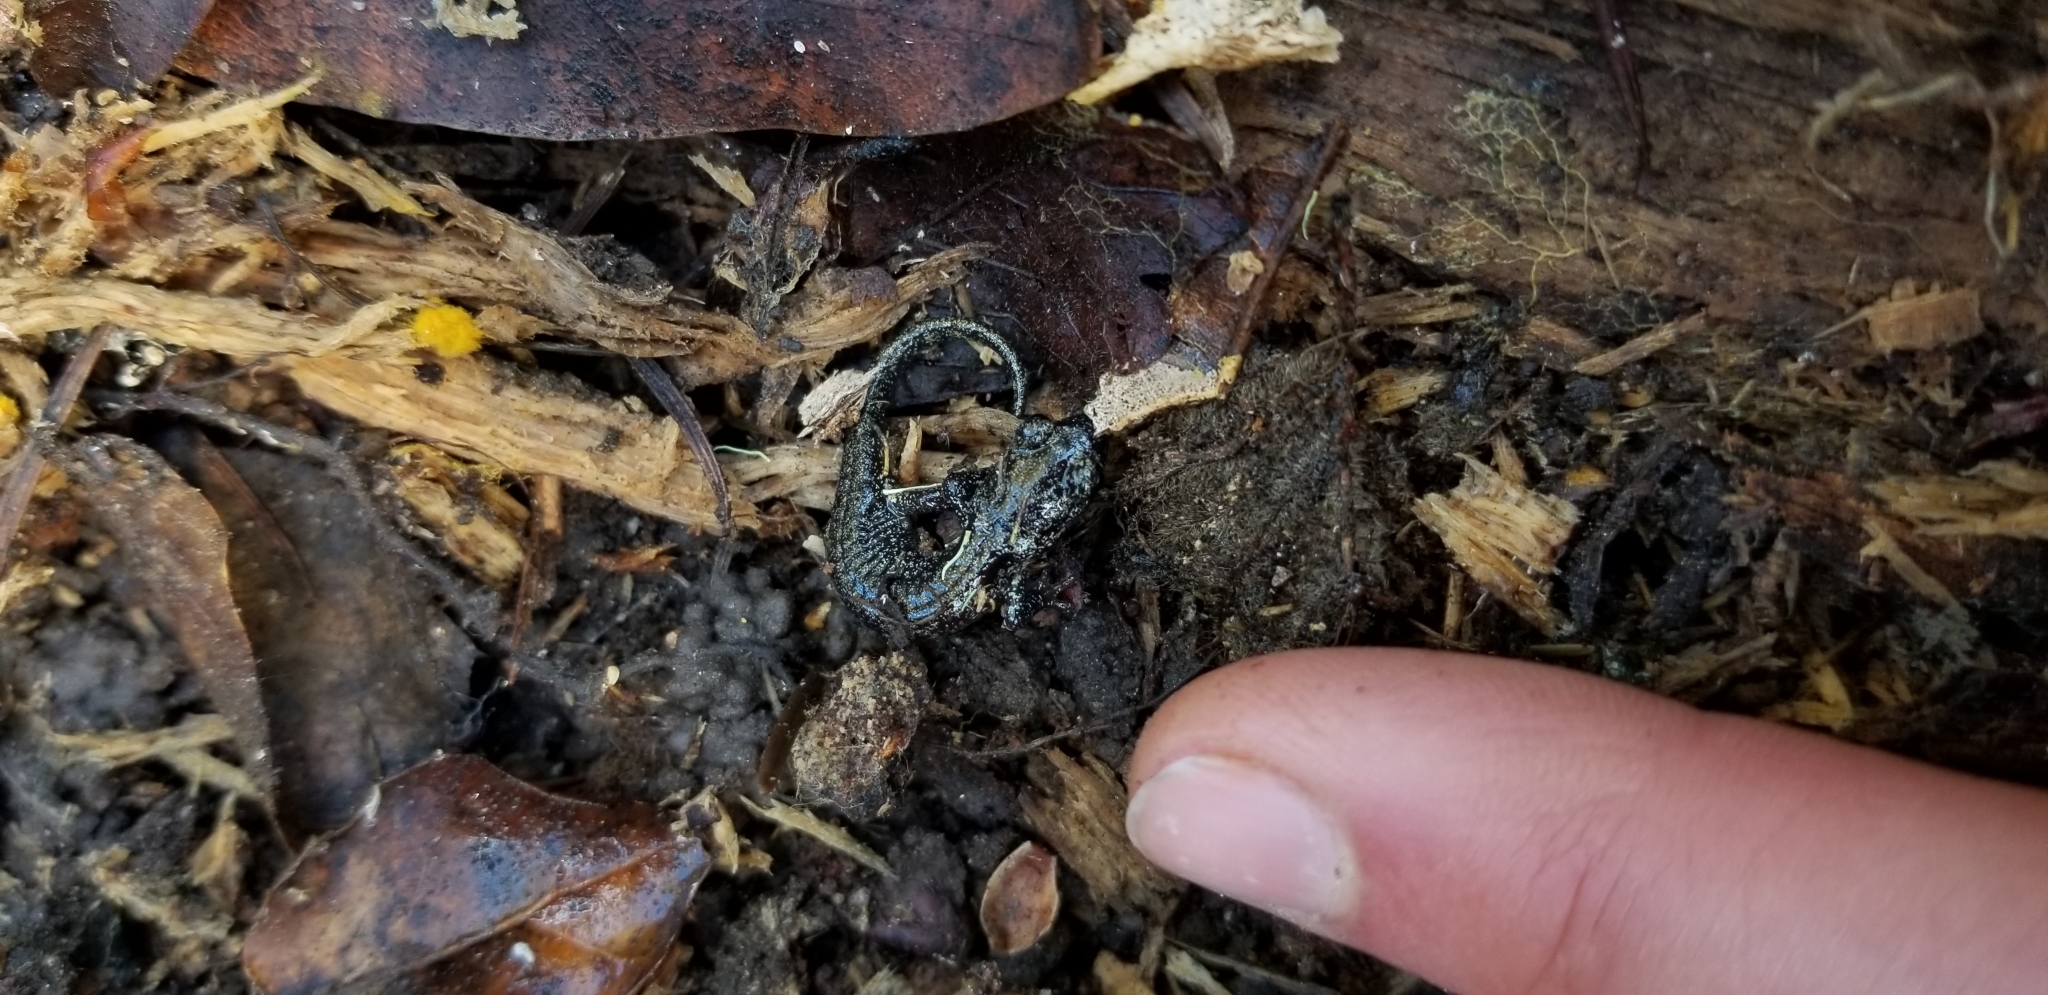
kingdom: Animalia
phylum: Chordata
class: Amphibia
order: Caudata
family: Plethodontidae
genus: Aneides
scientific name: Aneides lugubris
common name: Arboreal salamander
